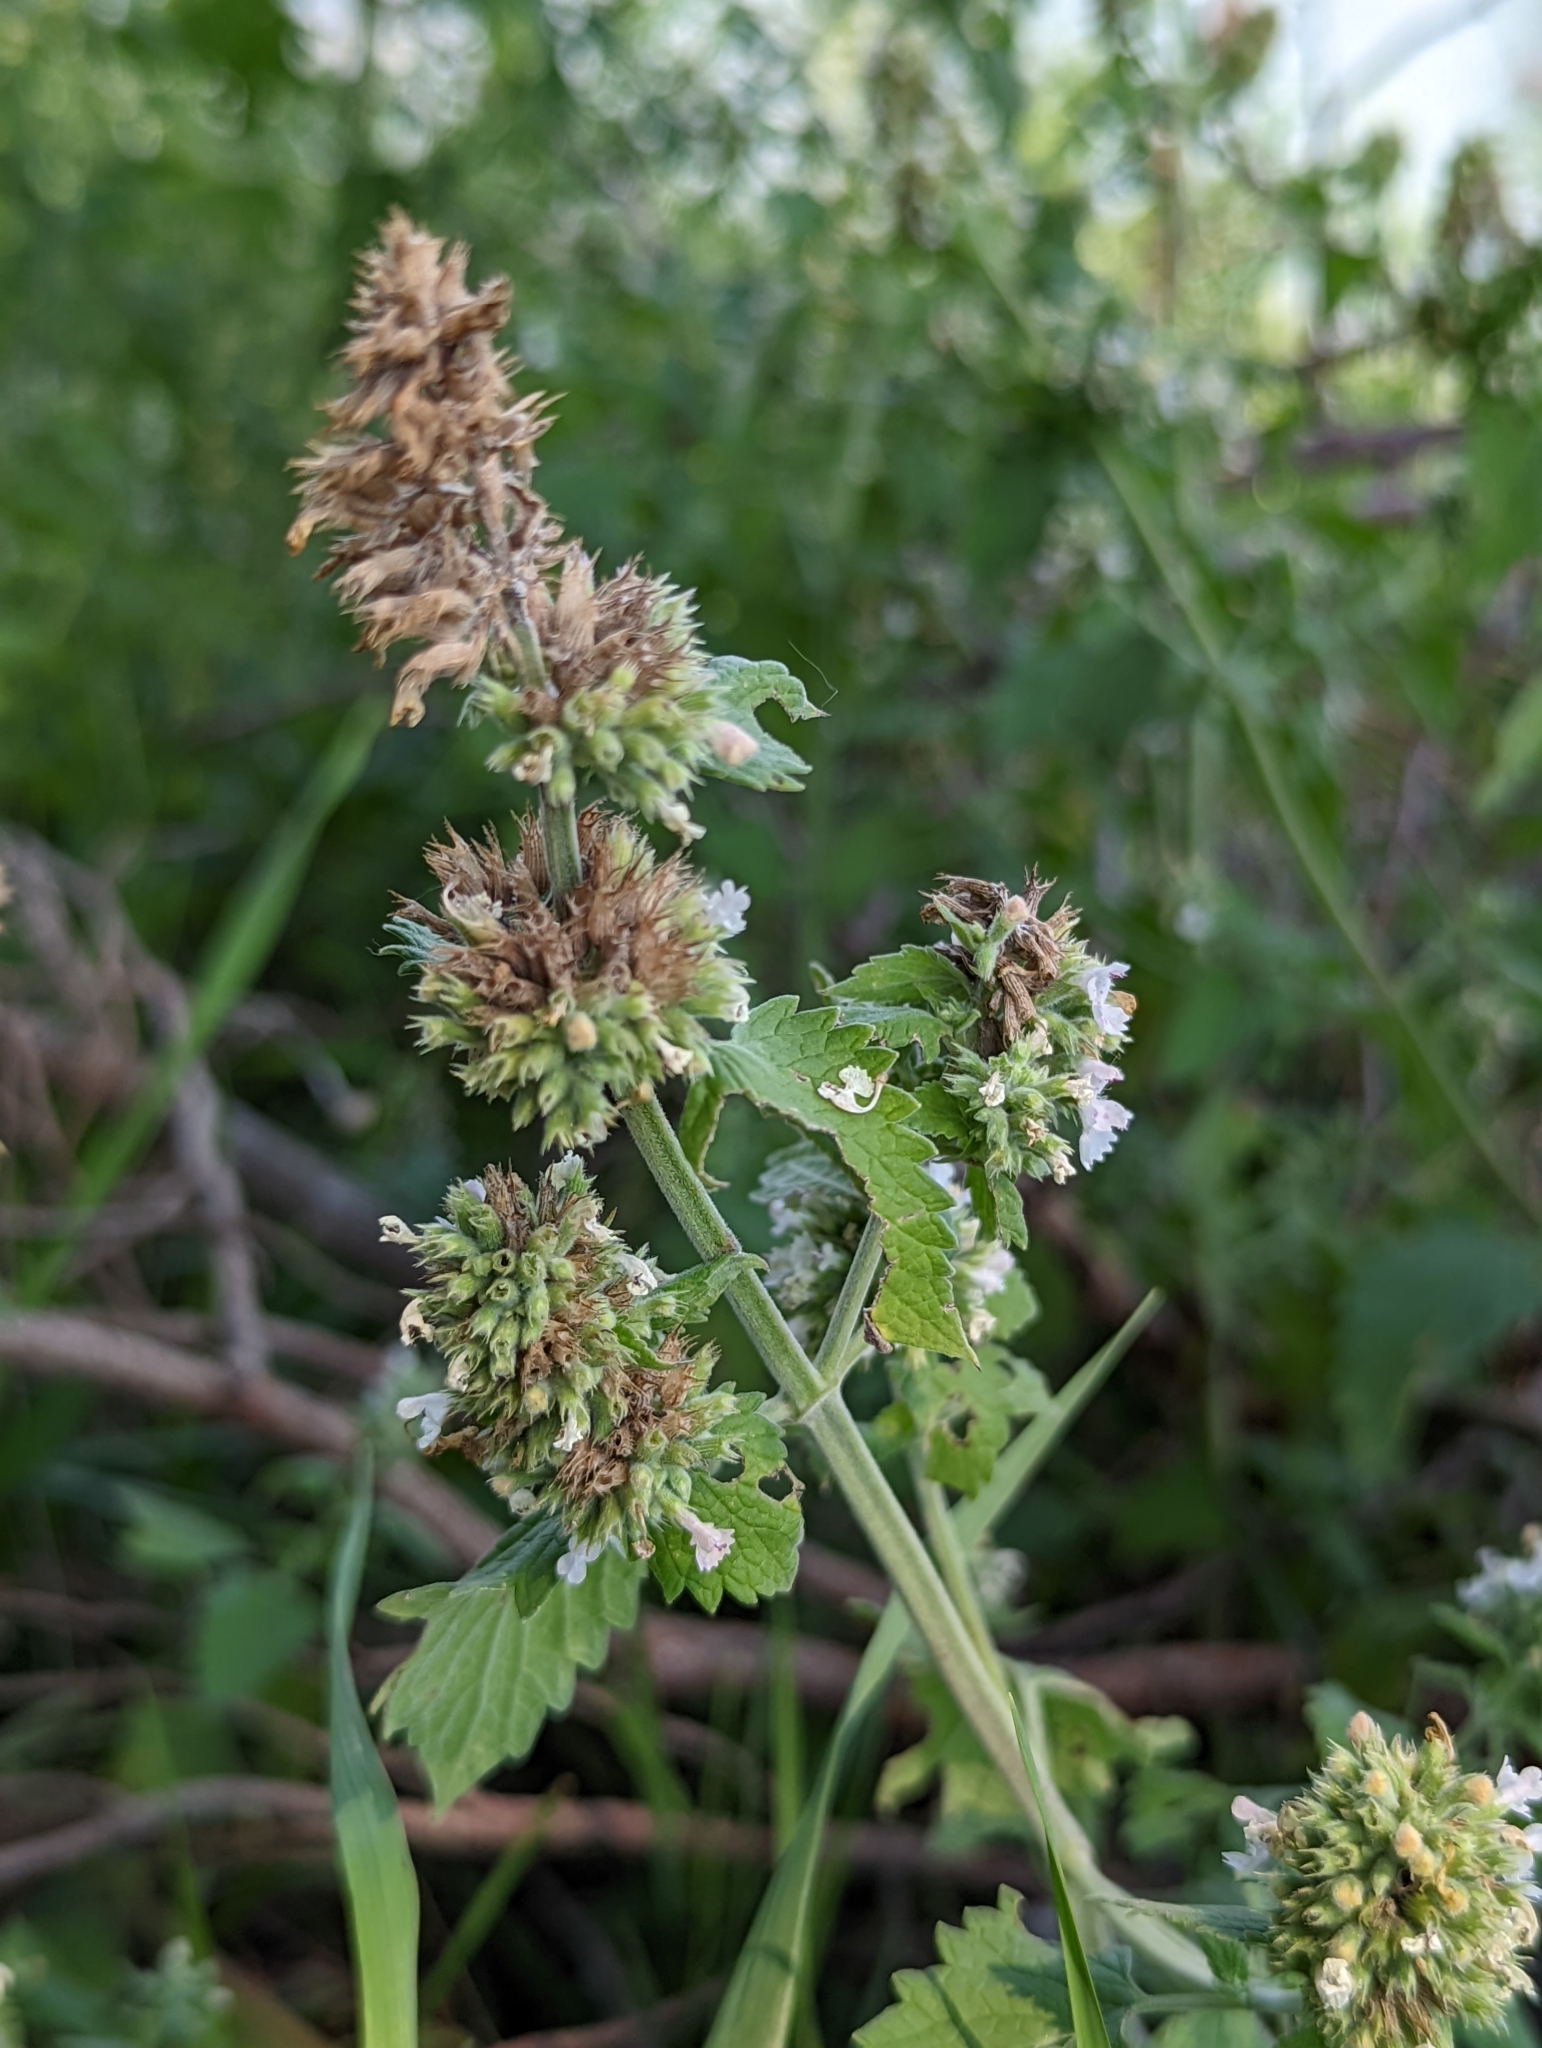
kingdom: Plantae
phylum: Tracheophyta
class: Magnoliopsida
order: Lamiales
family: Lamiaceae
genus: Nepeta
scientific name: Nepeta cataria
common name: Catnip
